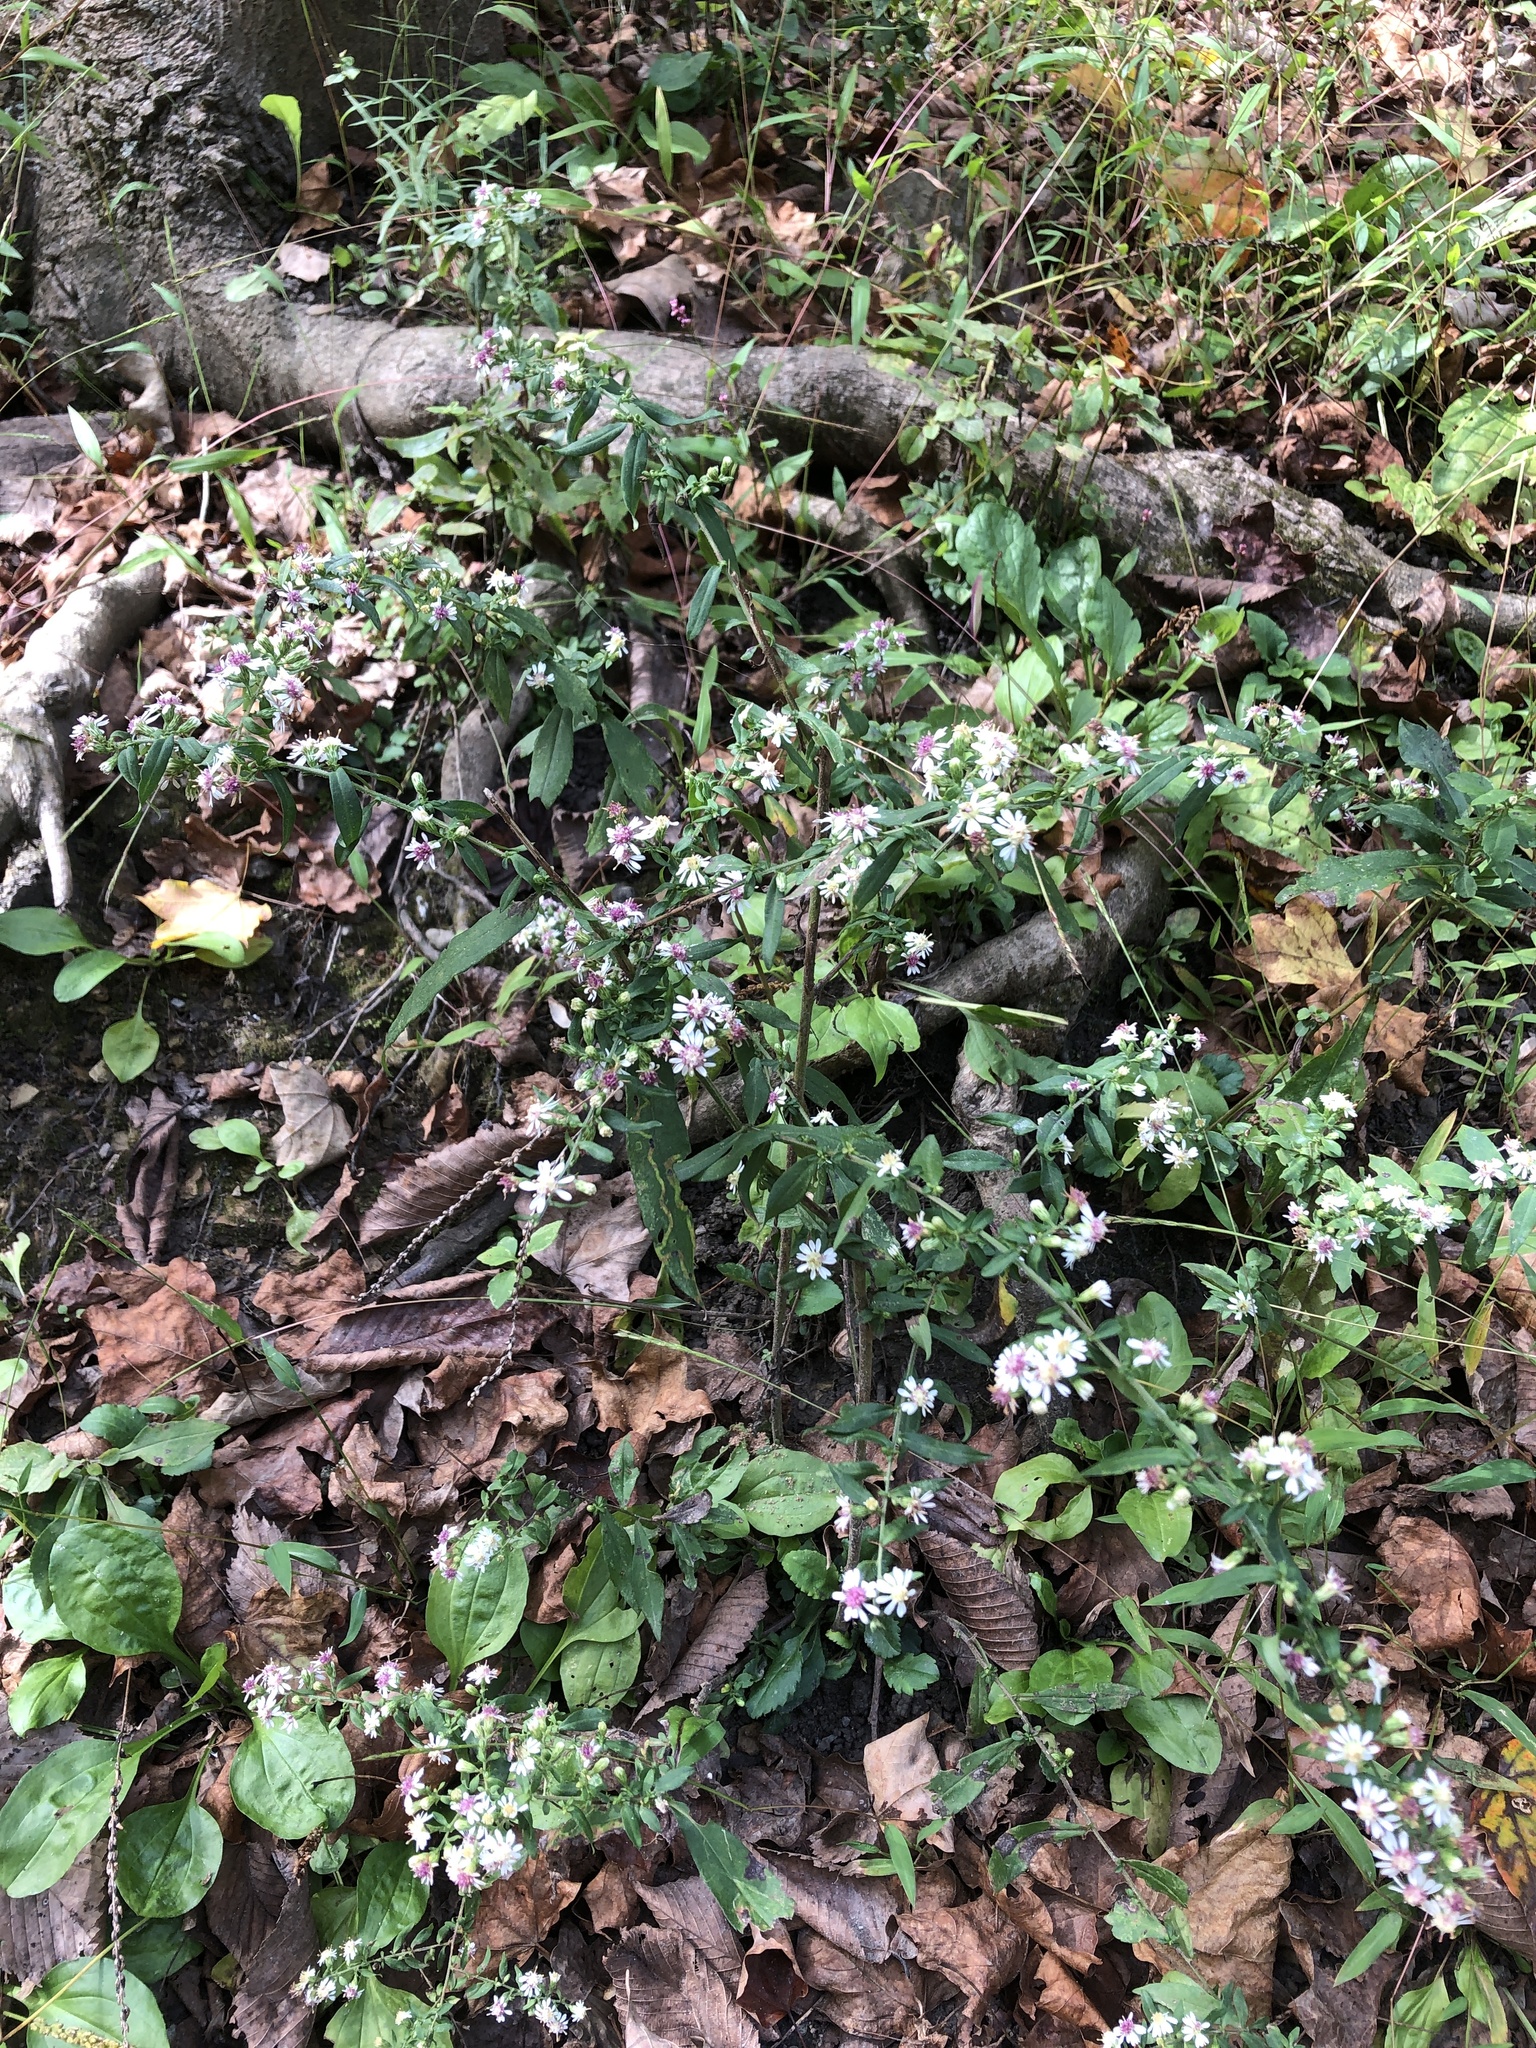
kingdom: Plantae
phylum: Tracheophyta
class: Magnoliopsida
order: Asterales
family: Asteraceae
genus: Symphyotrichum
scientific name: Symphyotrichum lateriflorum
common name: Calico aster
